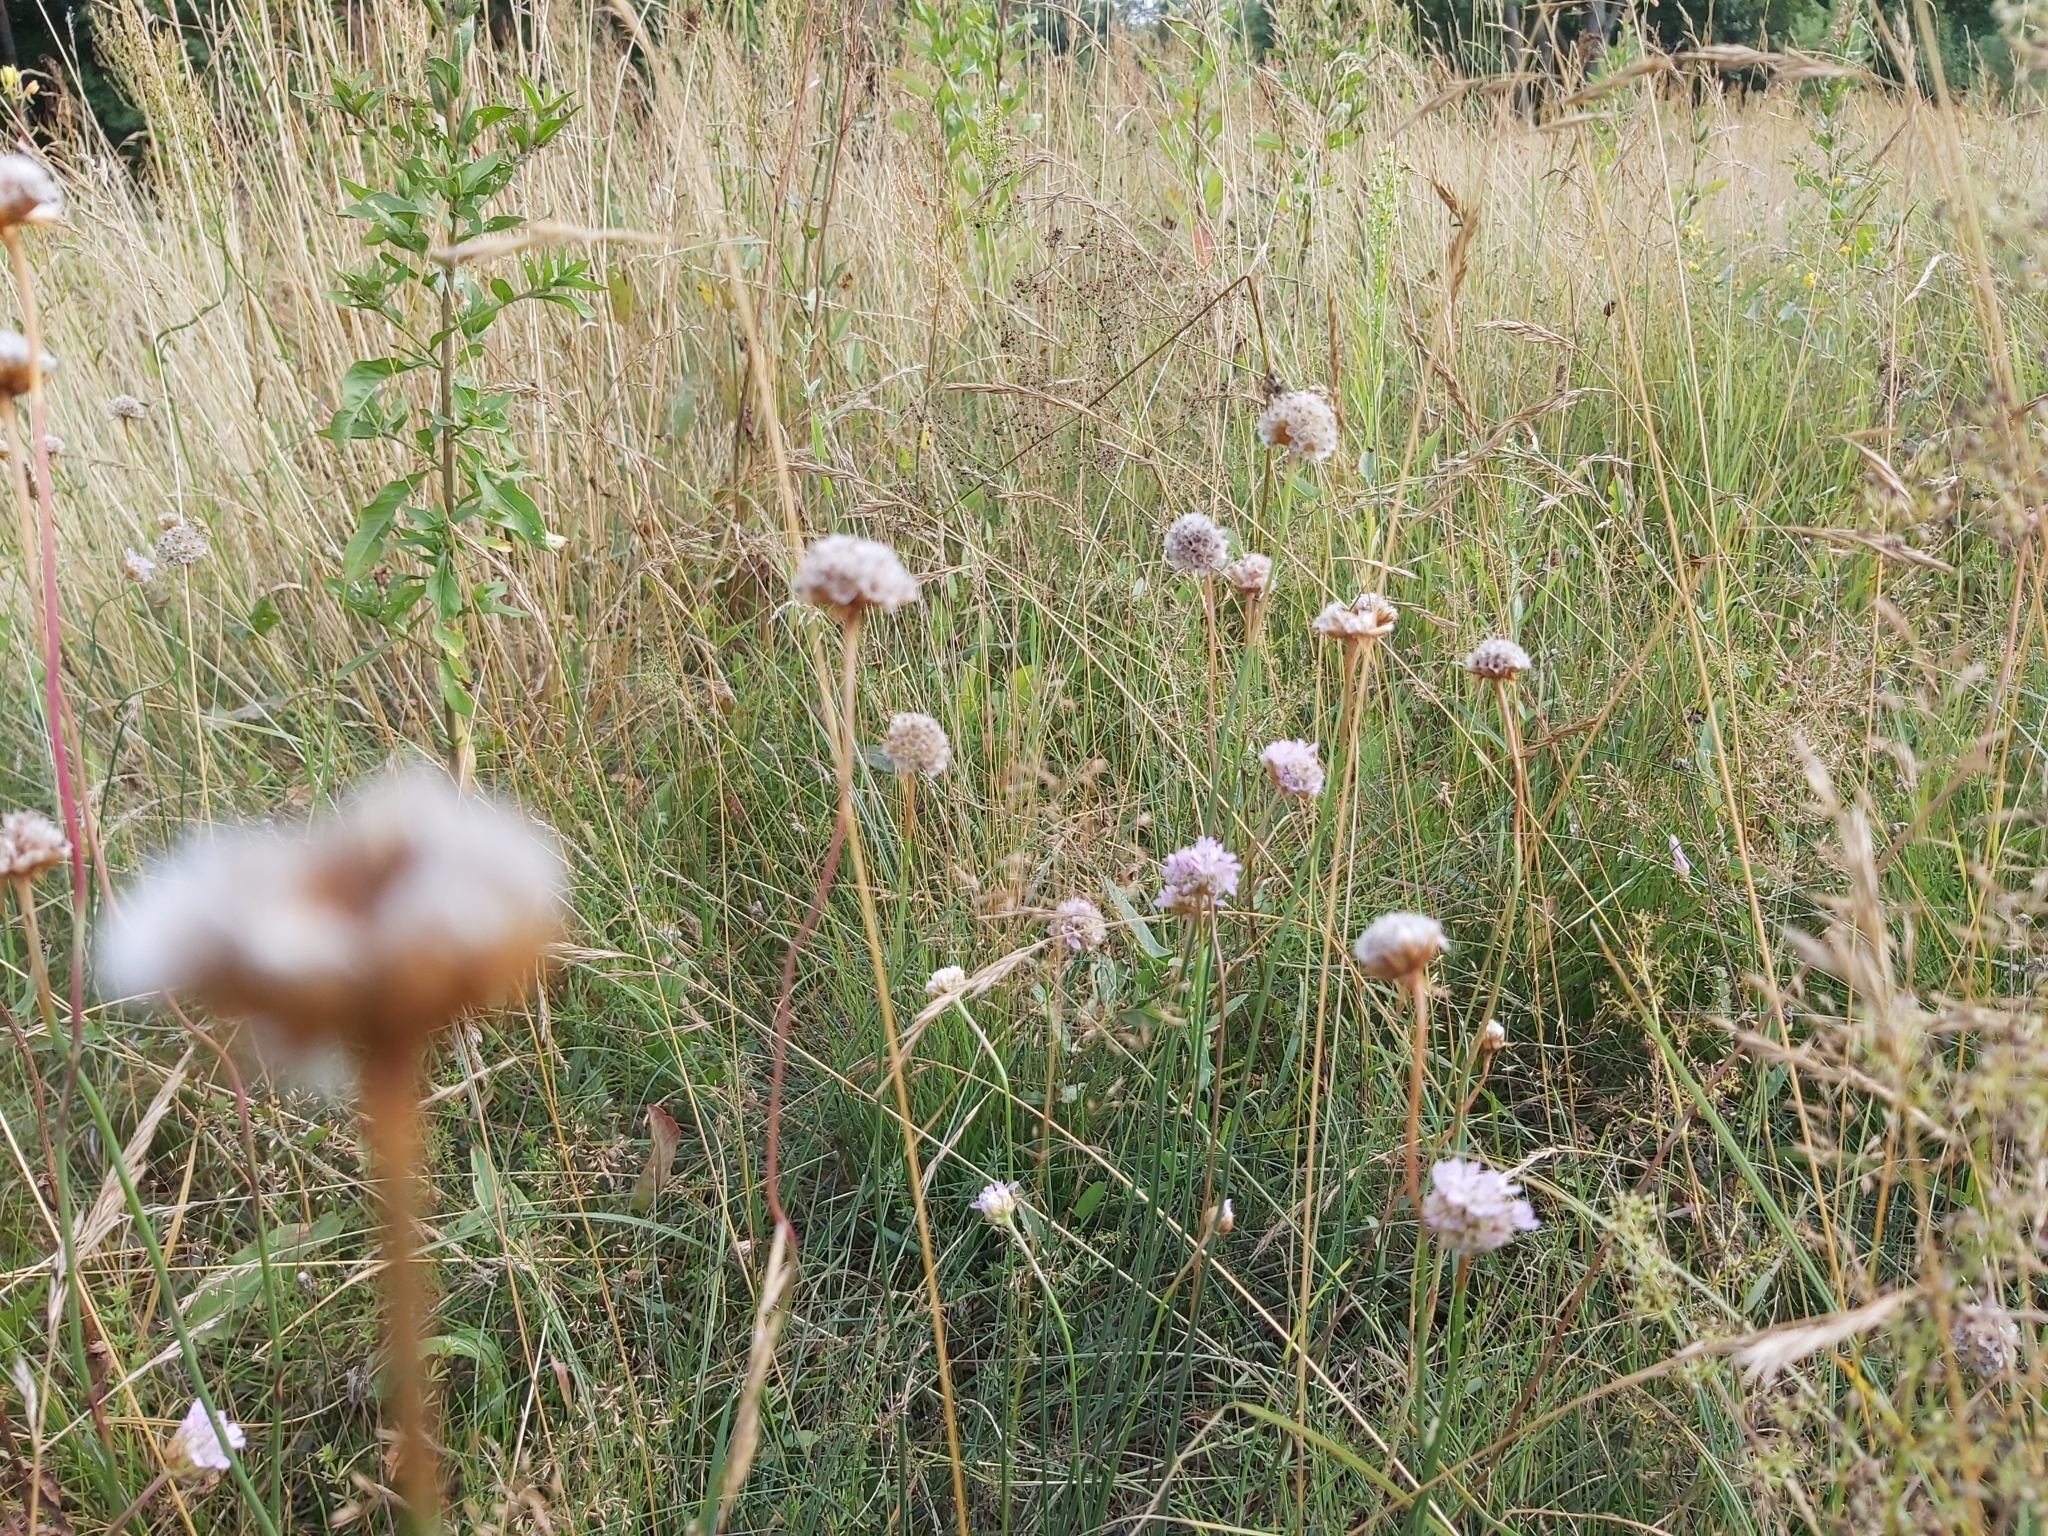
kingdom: Plantae
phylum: Tracheophyta
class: Magnoliopsida
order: Caryophyllales
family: Plumbaginaceae
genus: Armeria
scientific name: Armeria maritima
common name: Thrift
